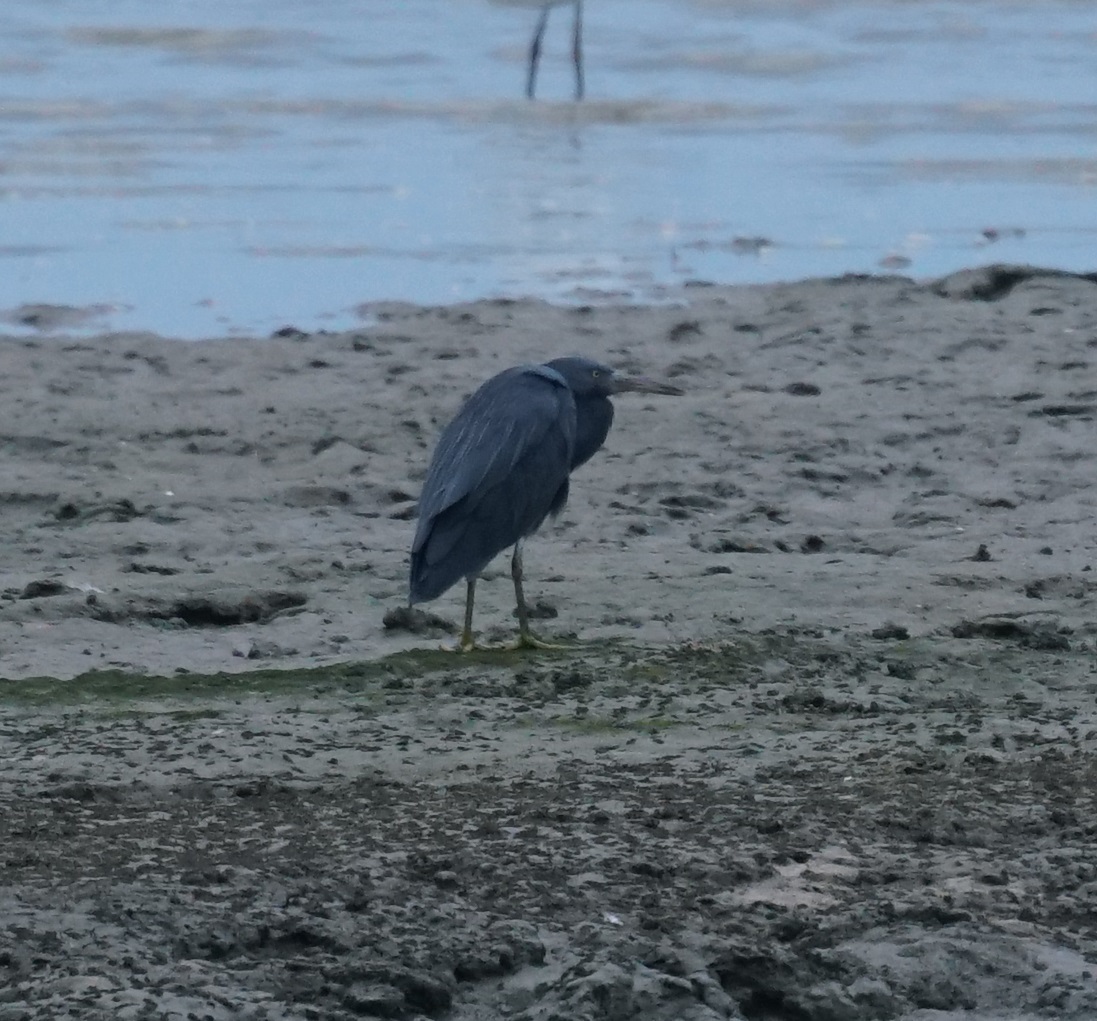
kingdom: Animalia
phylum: Chordata
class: Aves
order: Pelecaniformes
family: Ardeidae
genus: Egretta
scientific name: Egretta sacra
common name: Pacific reef heron
